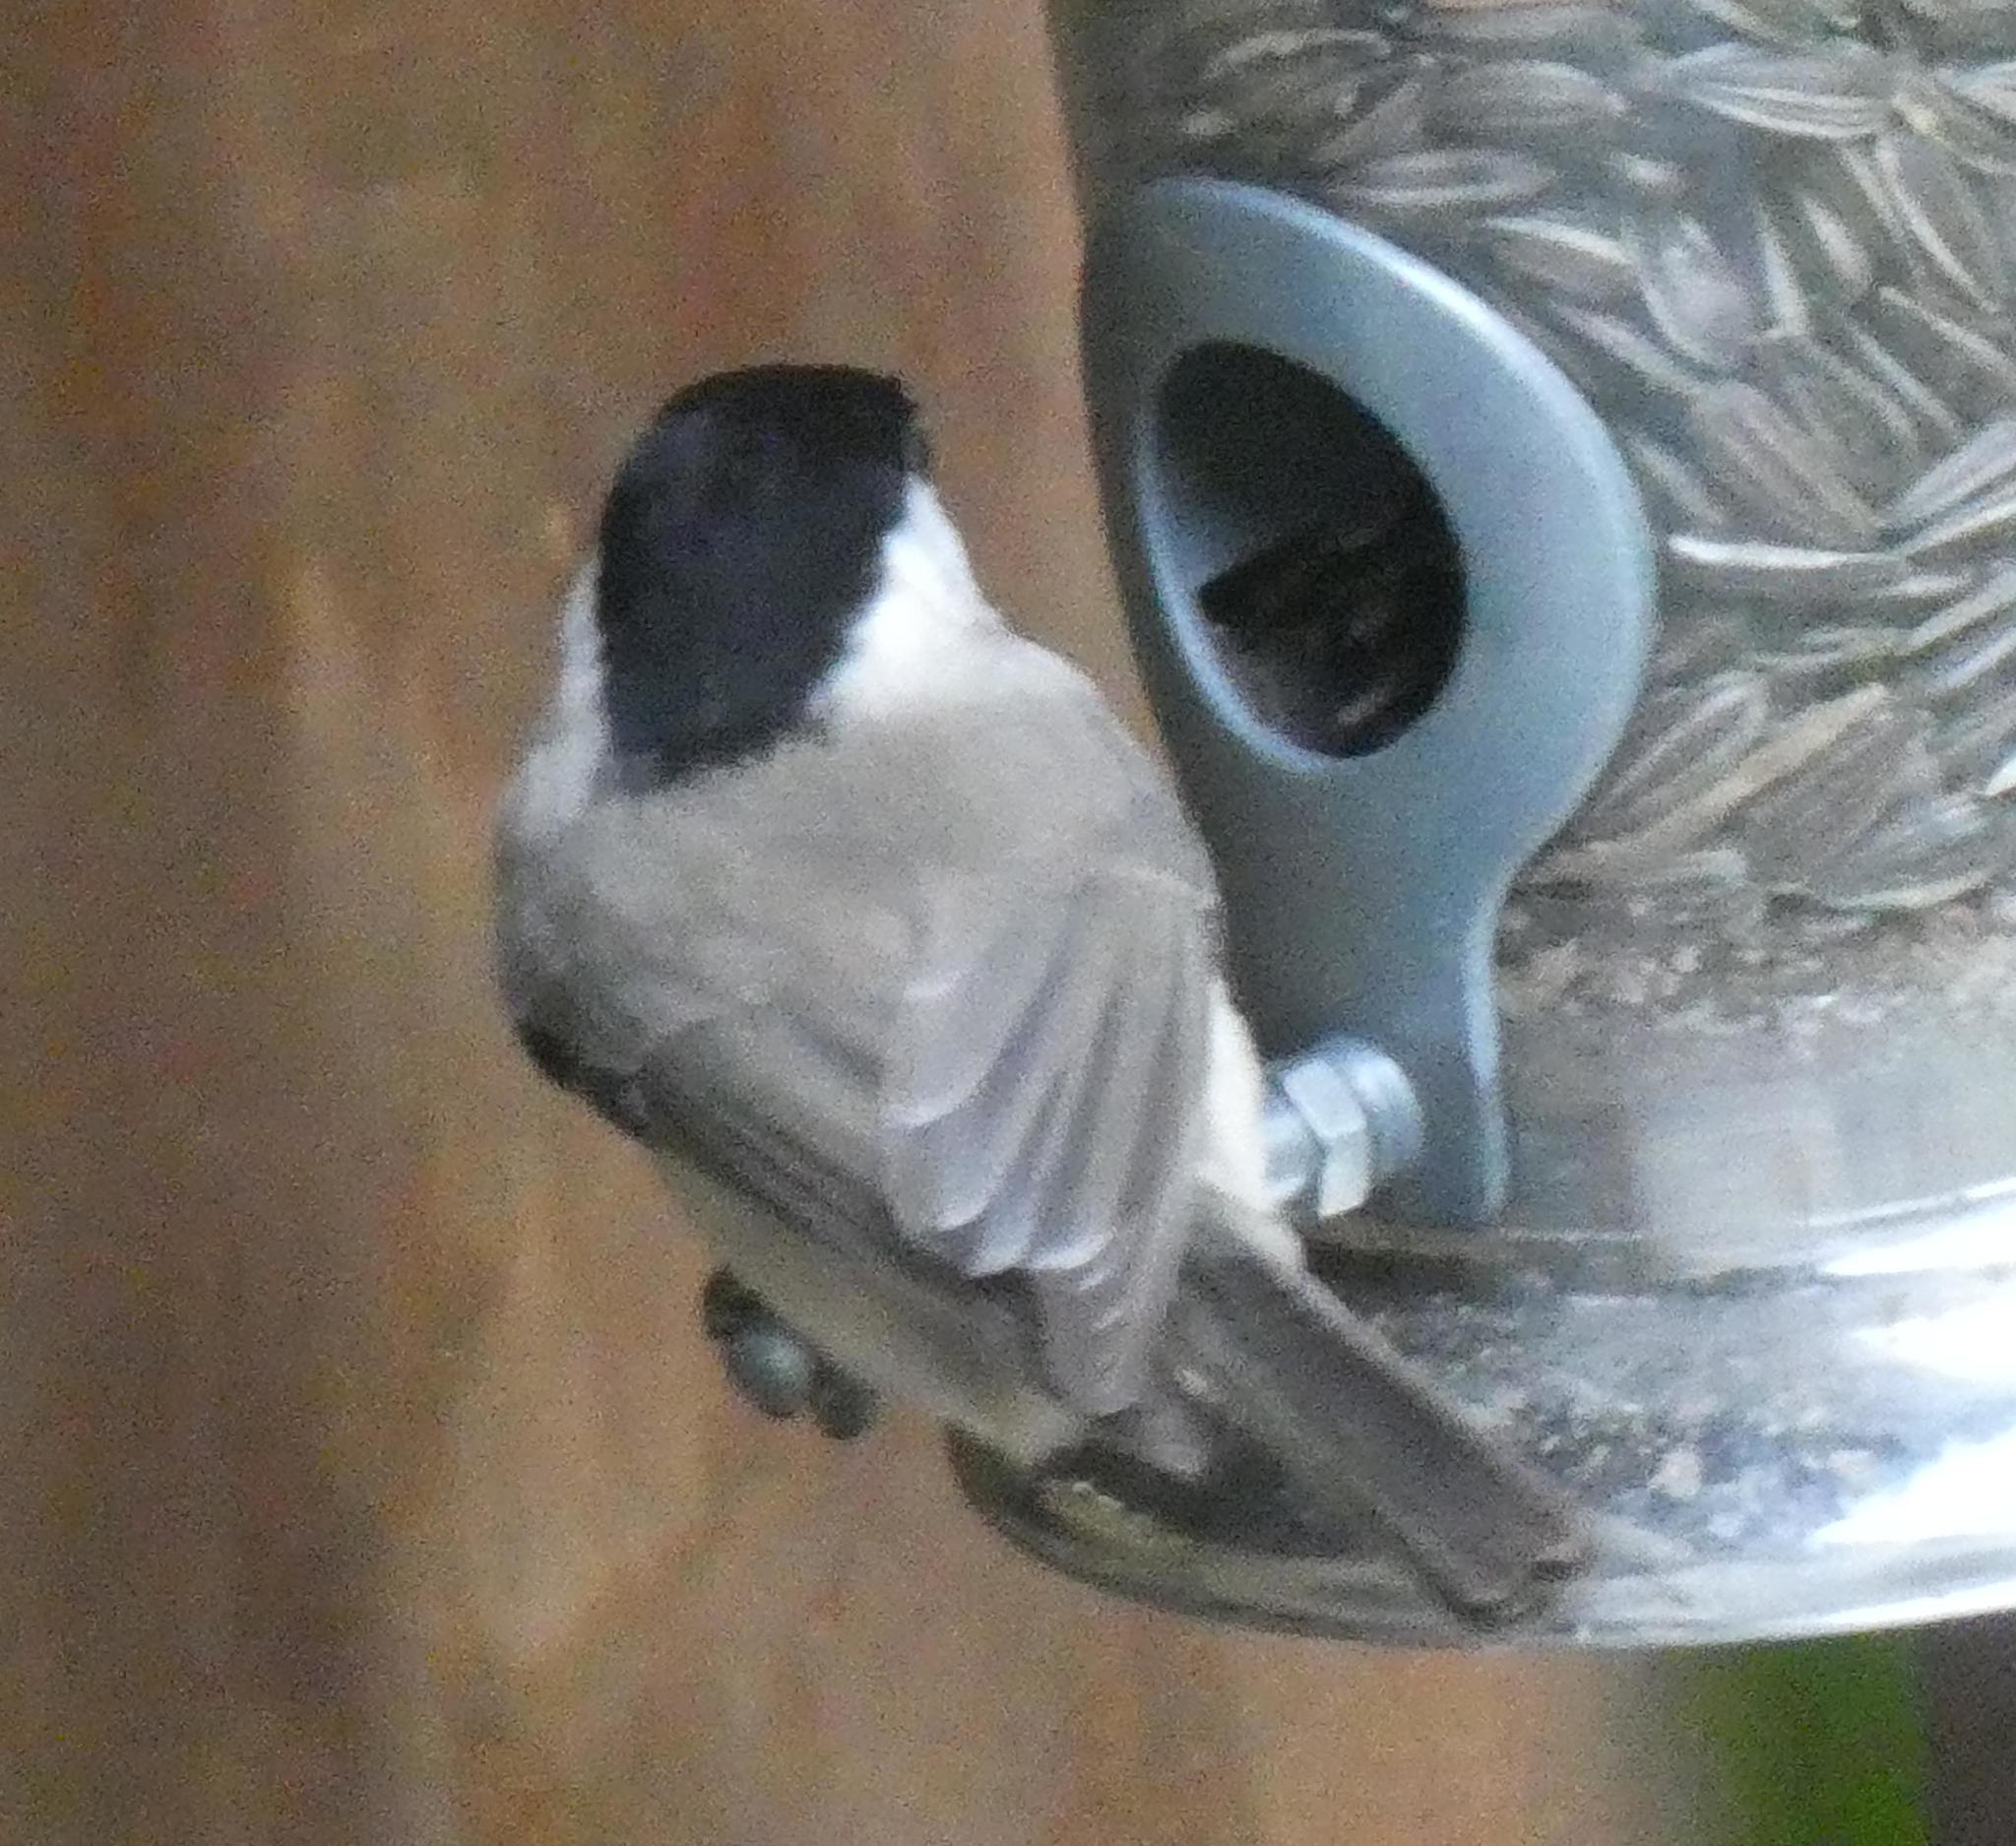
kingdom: Animalia
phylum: Chordata
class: Aves
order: Passeriformes
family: Paridae
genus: Poecile
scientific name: Poecile palustris
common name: Marsh tit
